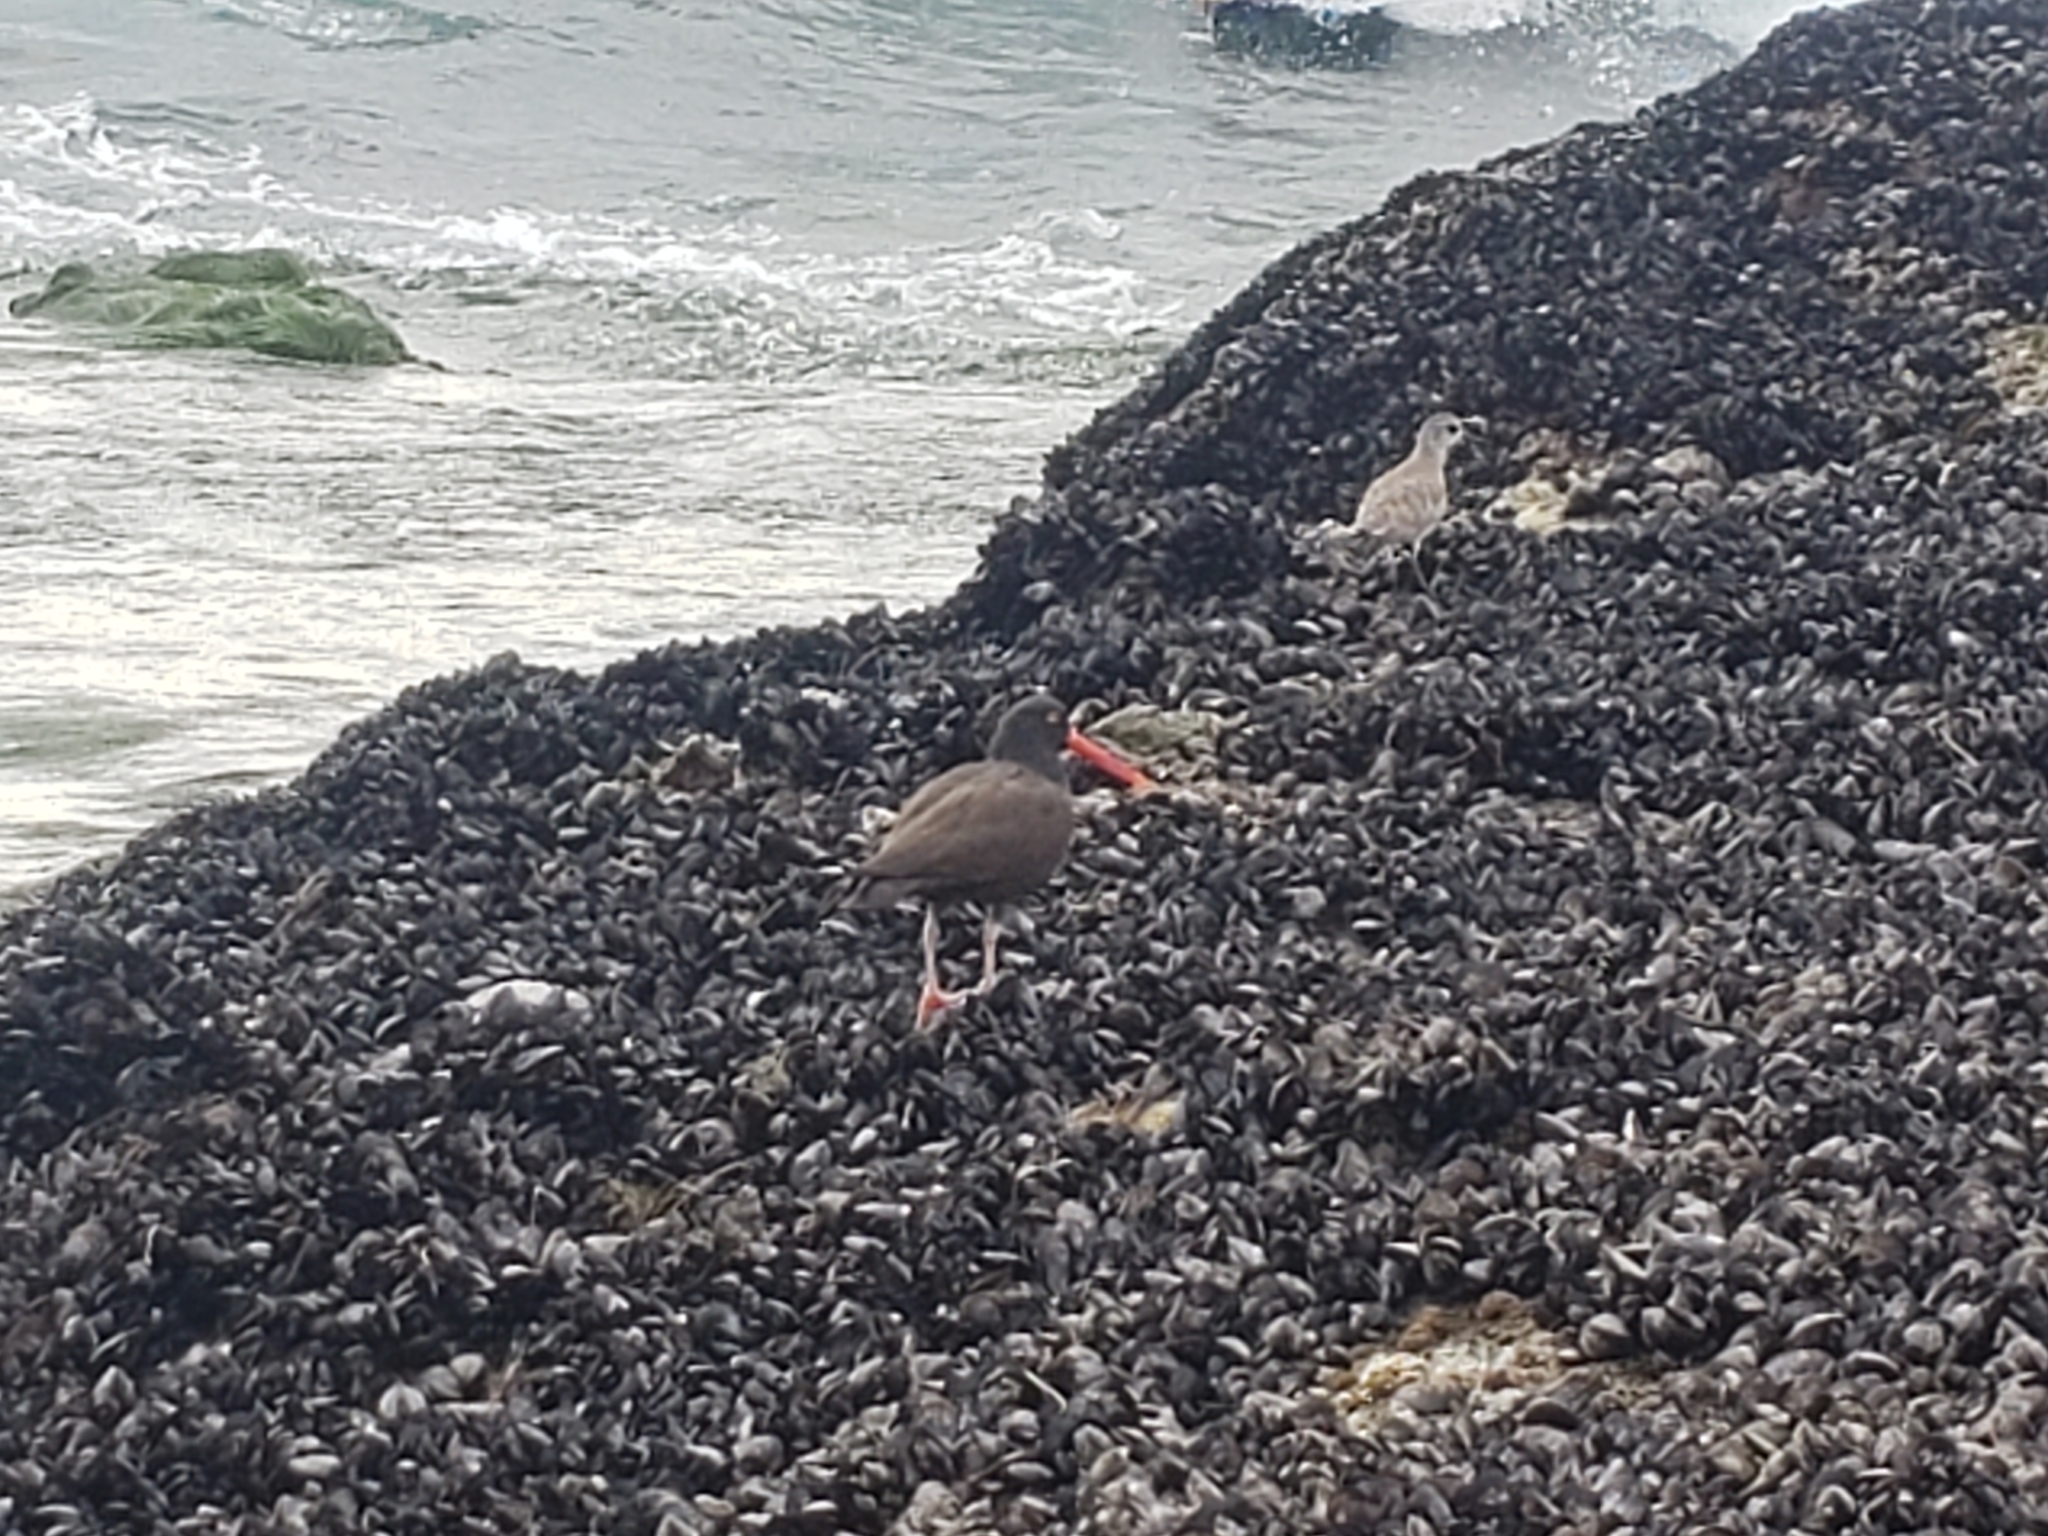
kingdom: Animalia
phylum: Chordata
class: Aves
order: Charadriiformes
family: Haematopodidae
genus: Haematopus
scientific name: Haematopus bachmani
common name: Black oystercatcher
